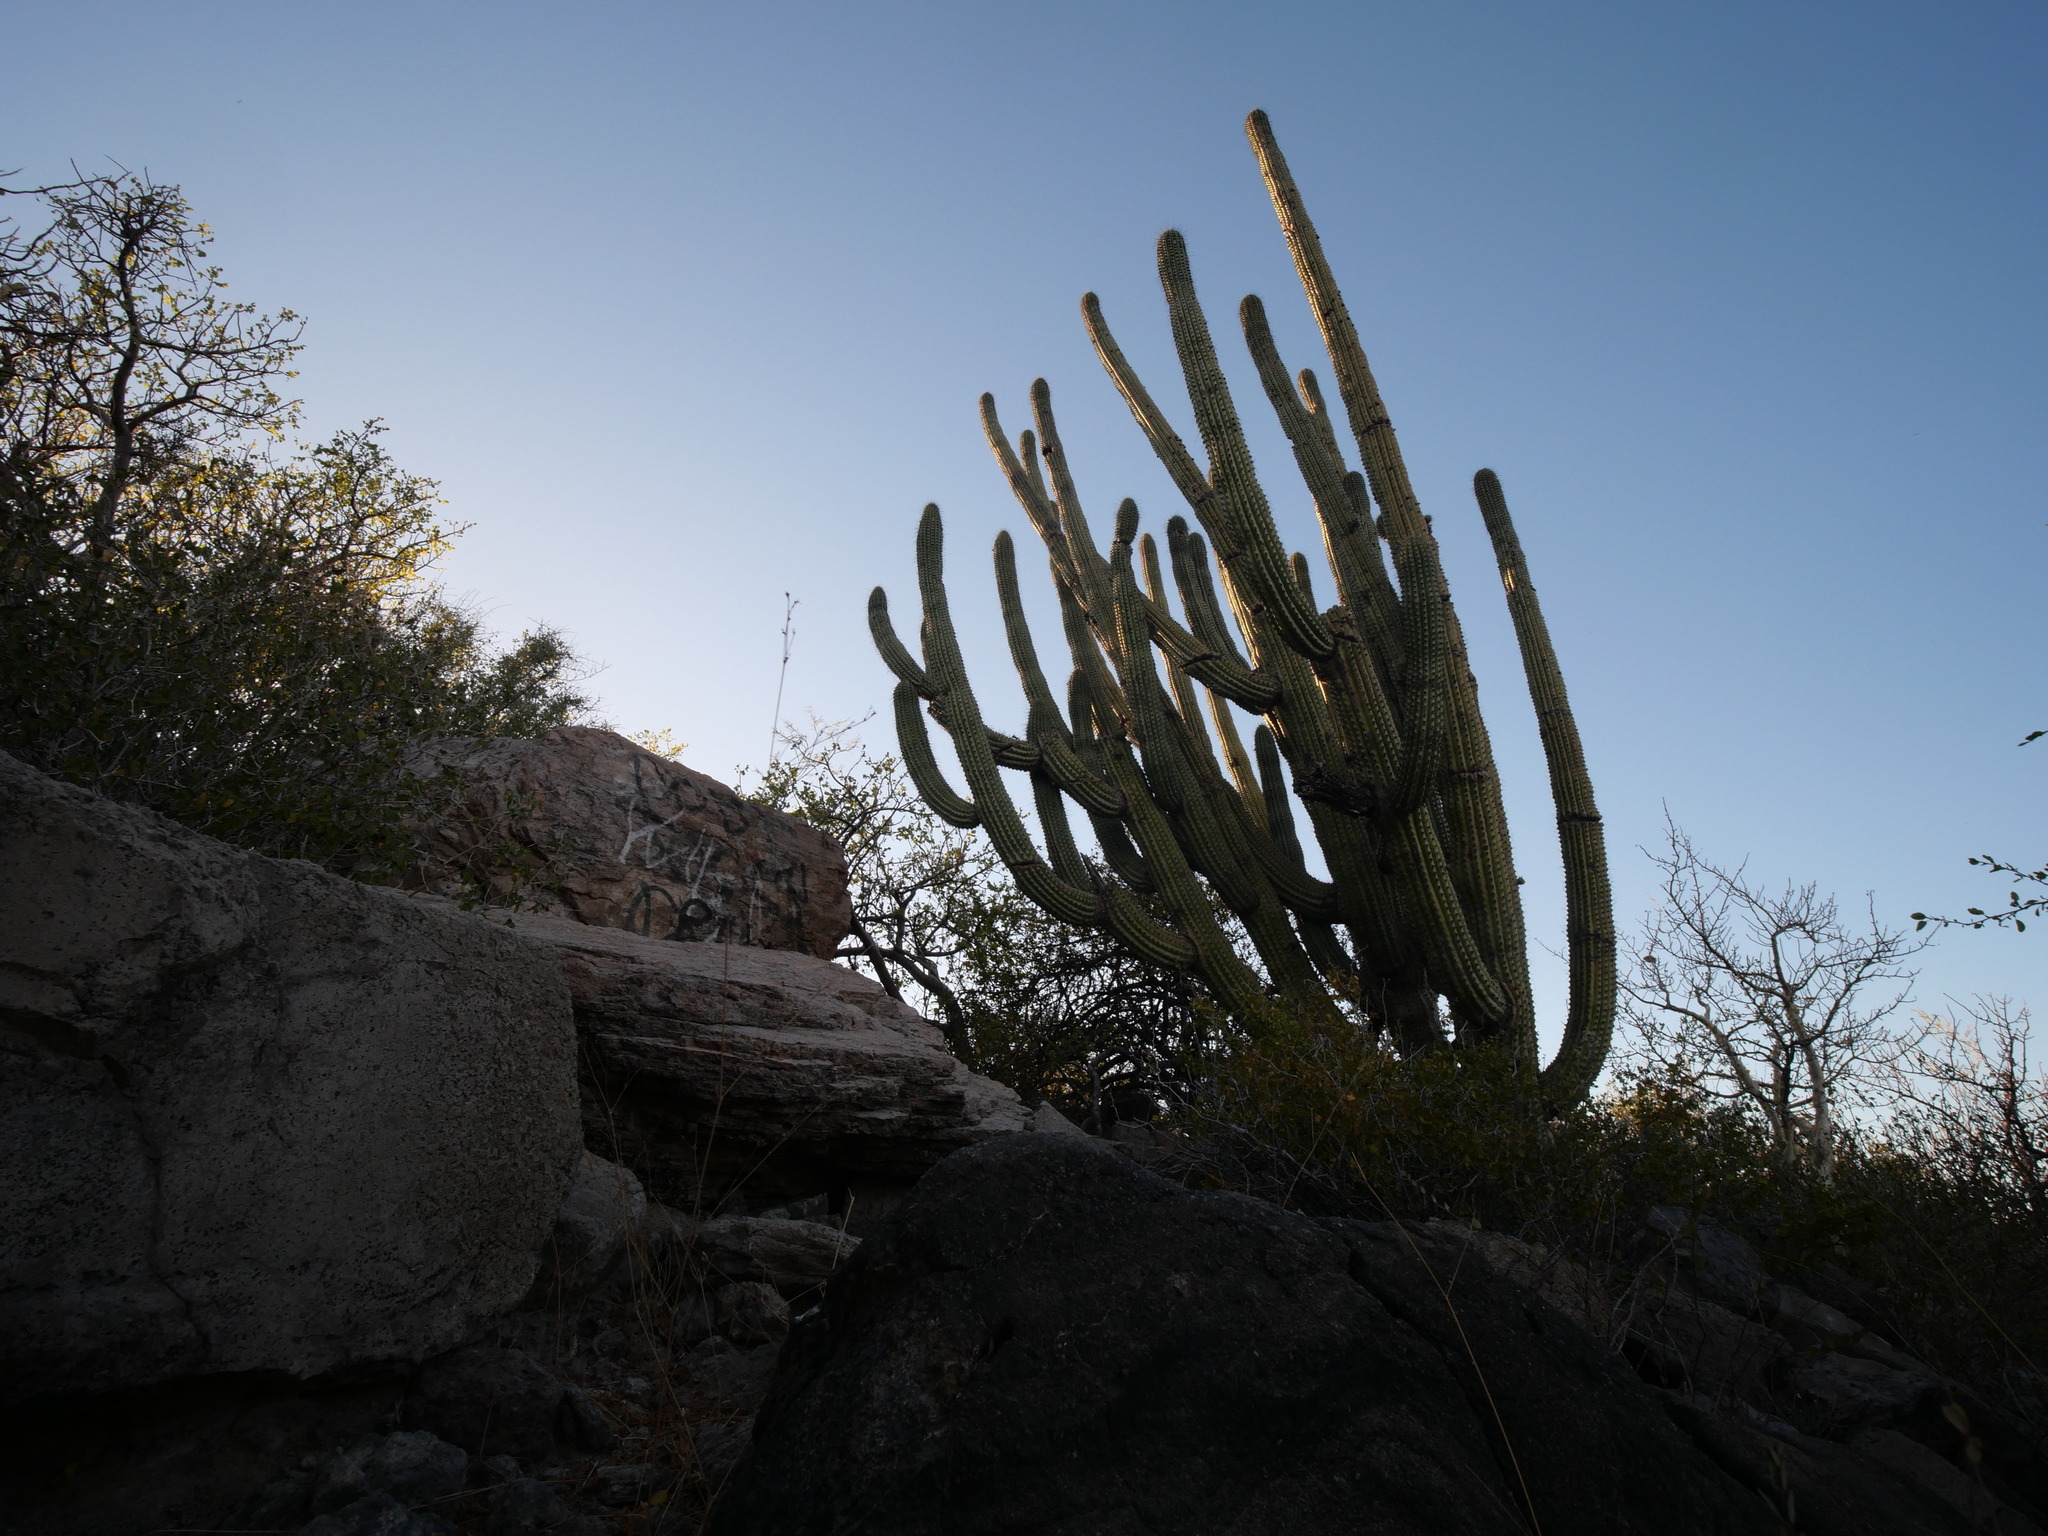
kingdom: Plantae
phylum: Tracheophyta
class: Magnoliopsida
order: Caryophyllales
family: Cactaceae
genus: Stenocereus
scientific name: Stenocereus thurberi
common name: Organ pipe cactus
